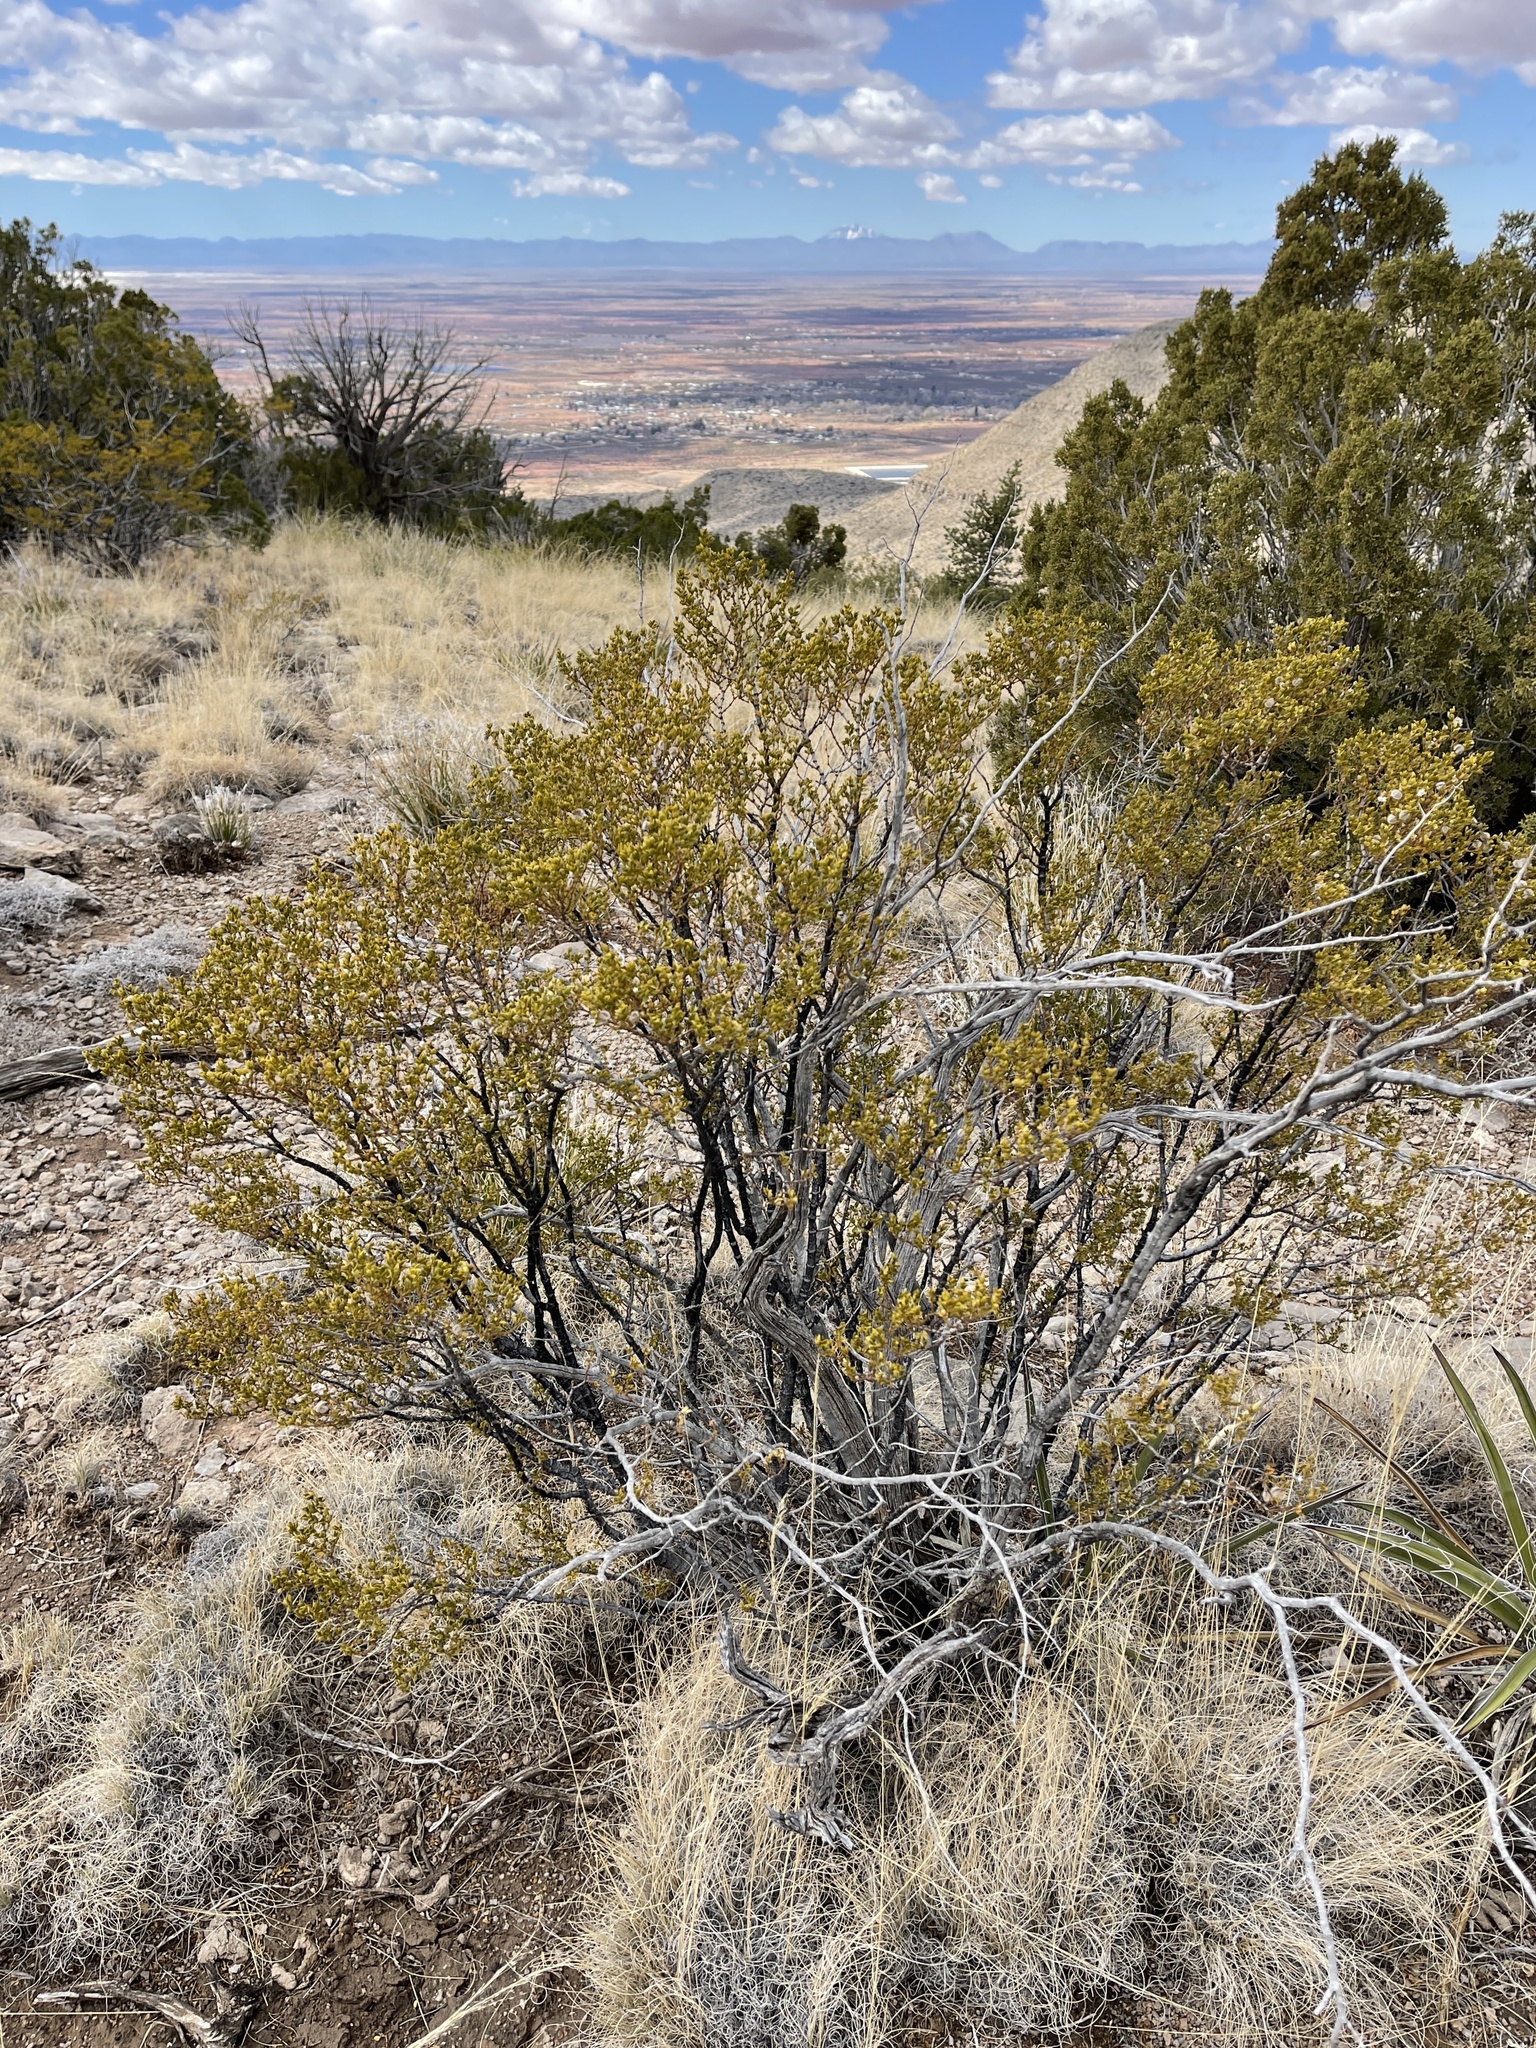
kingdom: Plantae
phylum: Tracheophyta
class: Magnoliopsida
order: Zygophyllales
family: Zygophyllaceae
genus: Larrea
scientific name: Larrea tridentata
